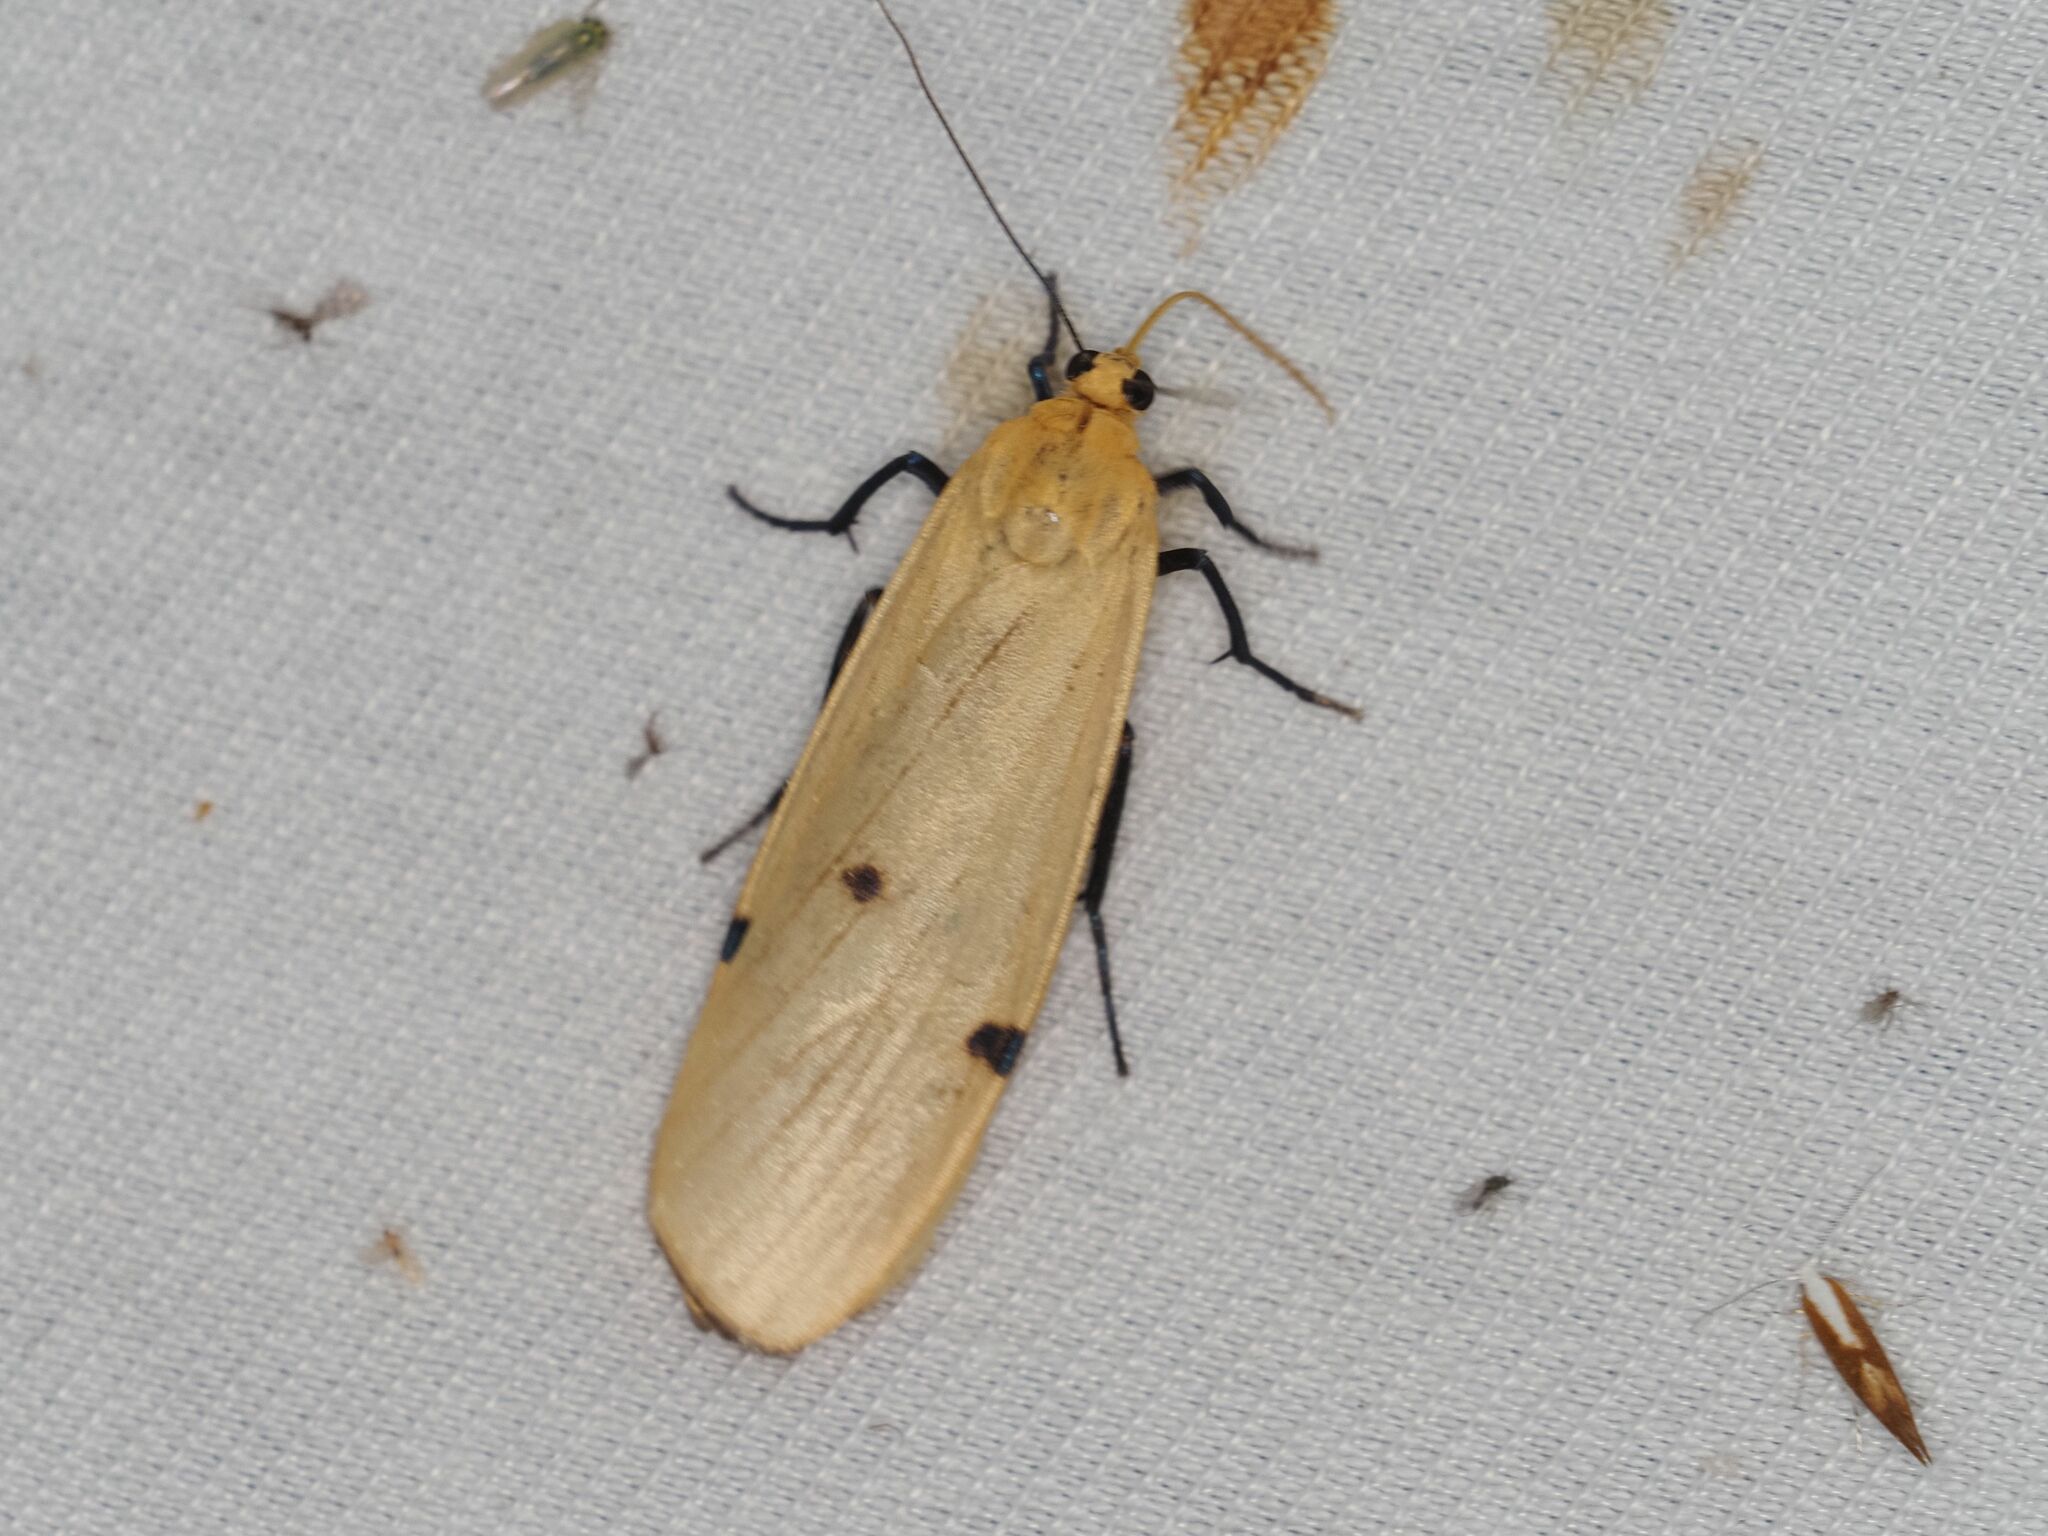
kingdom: Animalia
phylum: Arthropoda
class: Insecta
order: Lepidoptera
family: Erebidae
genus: Lithosia
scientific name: Lithosia quadra
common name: Four-spotted footman
